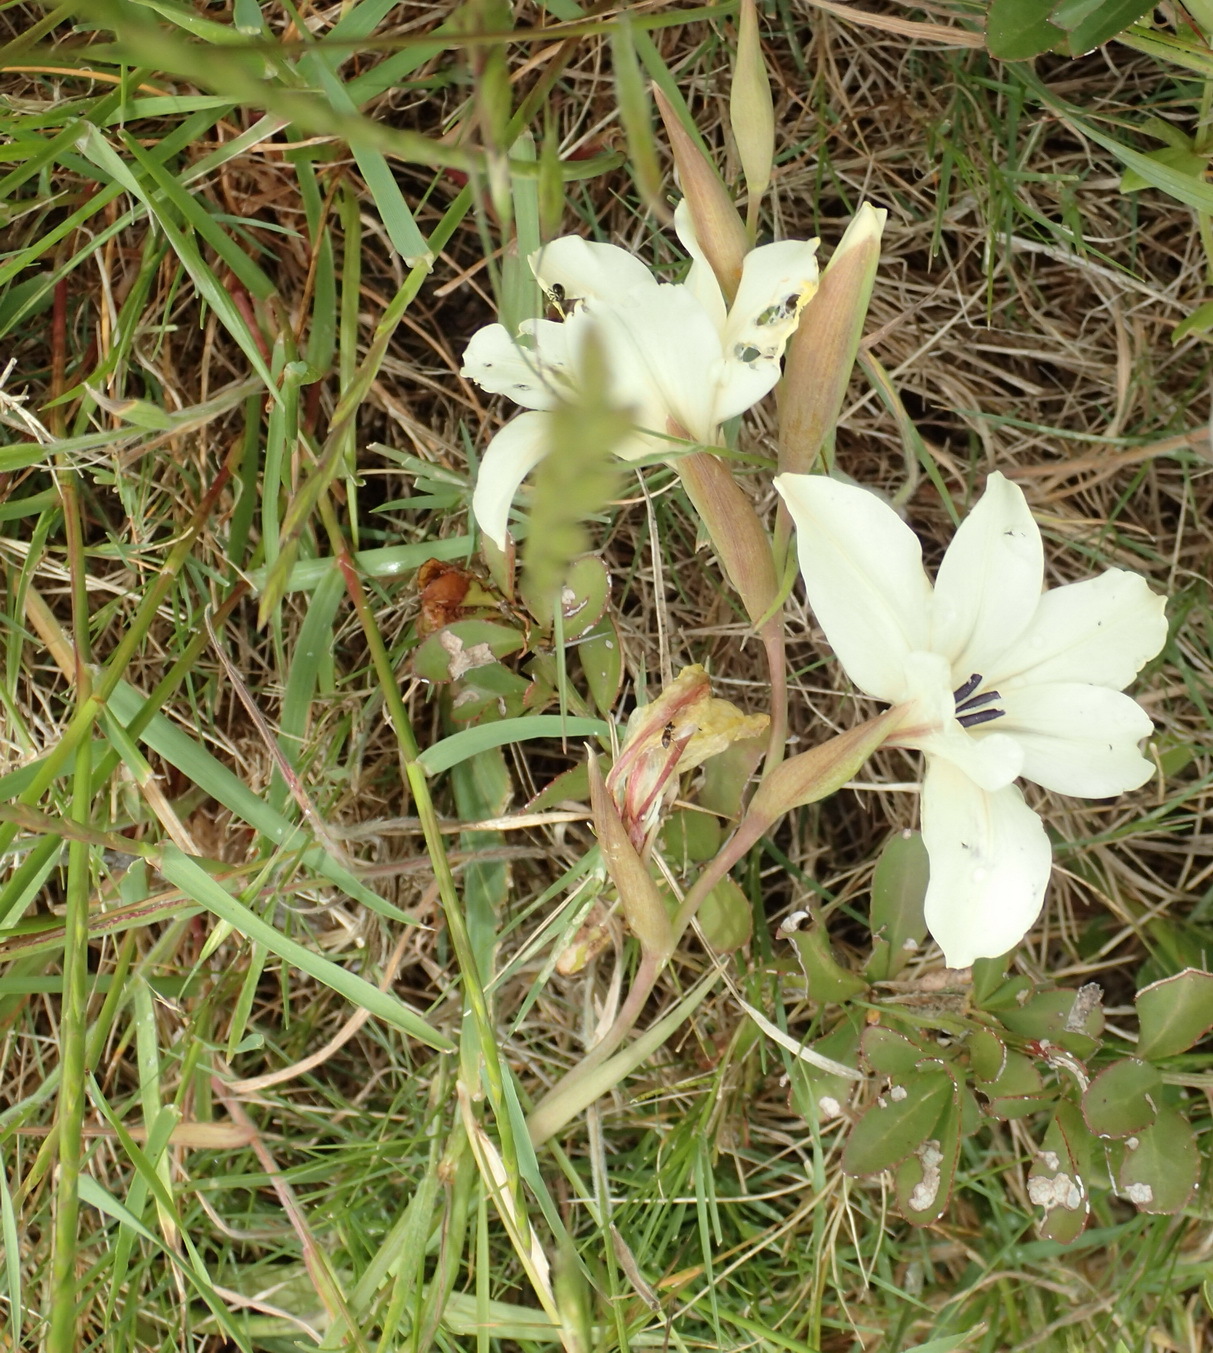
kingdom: Plantae
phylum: Tracheophyta
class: Liliopsida
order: Asparagales
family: Iridaceae
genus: Gladiolus
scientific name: Gladiolus floribundus
